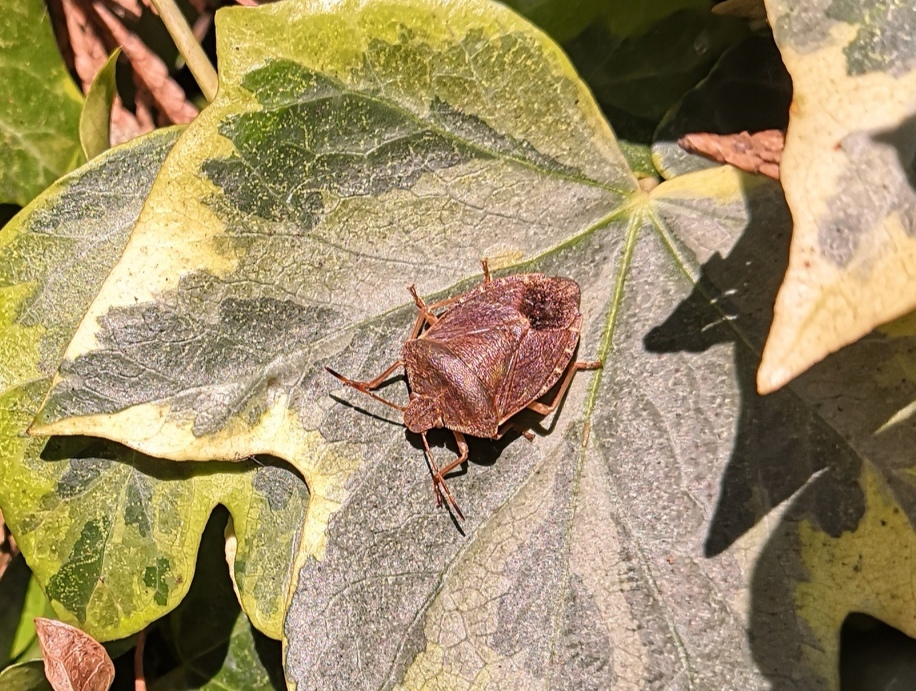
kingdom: Animalia
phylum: Arthropoda
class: Insecta
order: Hemiptera
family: Pentatomidae
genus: Palomena
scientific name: Palomena prasina
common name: Green shieldbug
